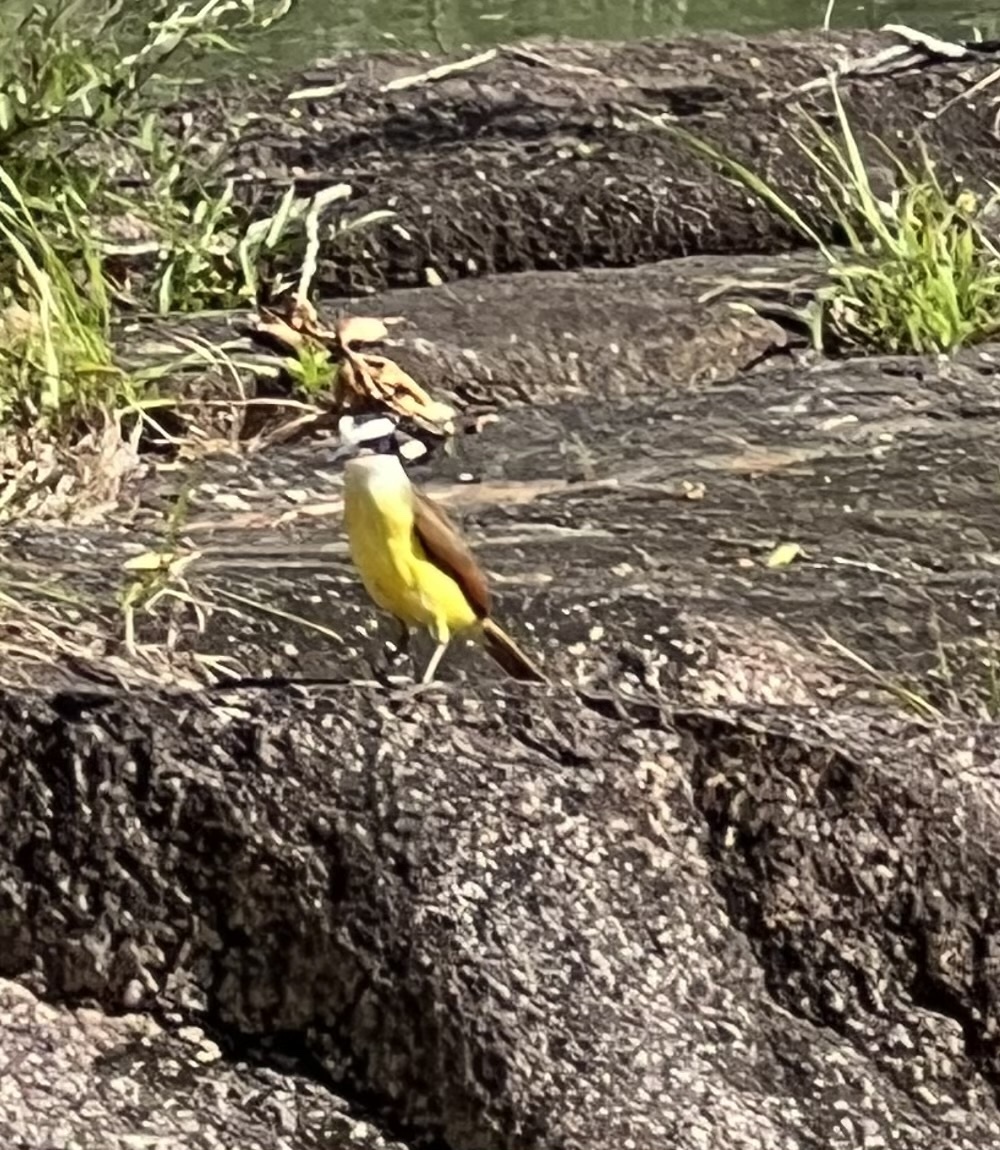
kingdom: Animalia
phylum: Chordata
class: Aves
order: Passeriformes
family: Tyrannidae
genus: Pitangus
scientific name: Pitangus sulphuratus
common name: Great kiskadee
